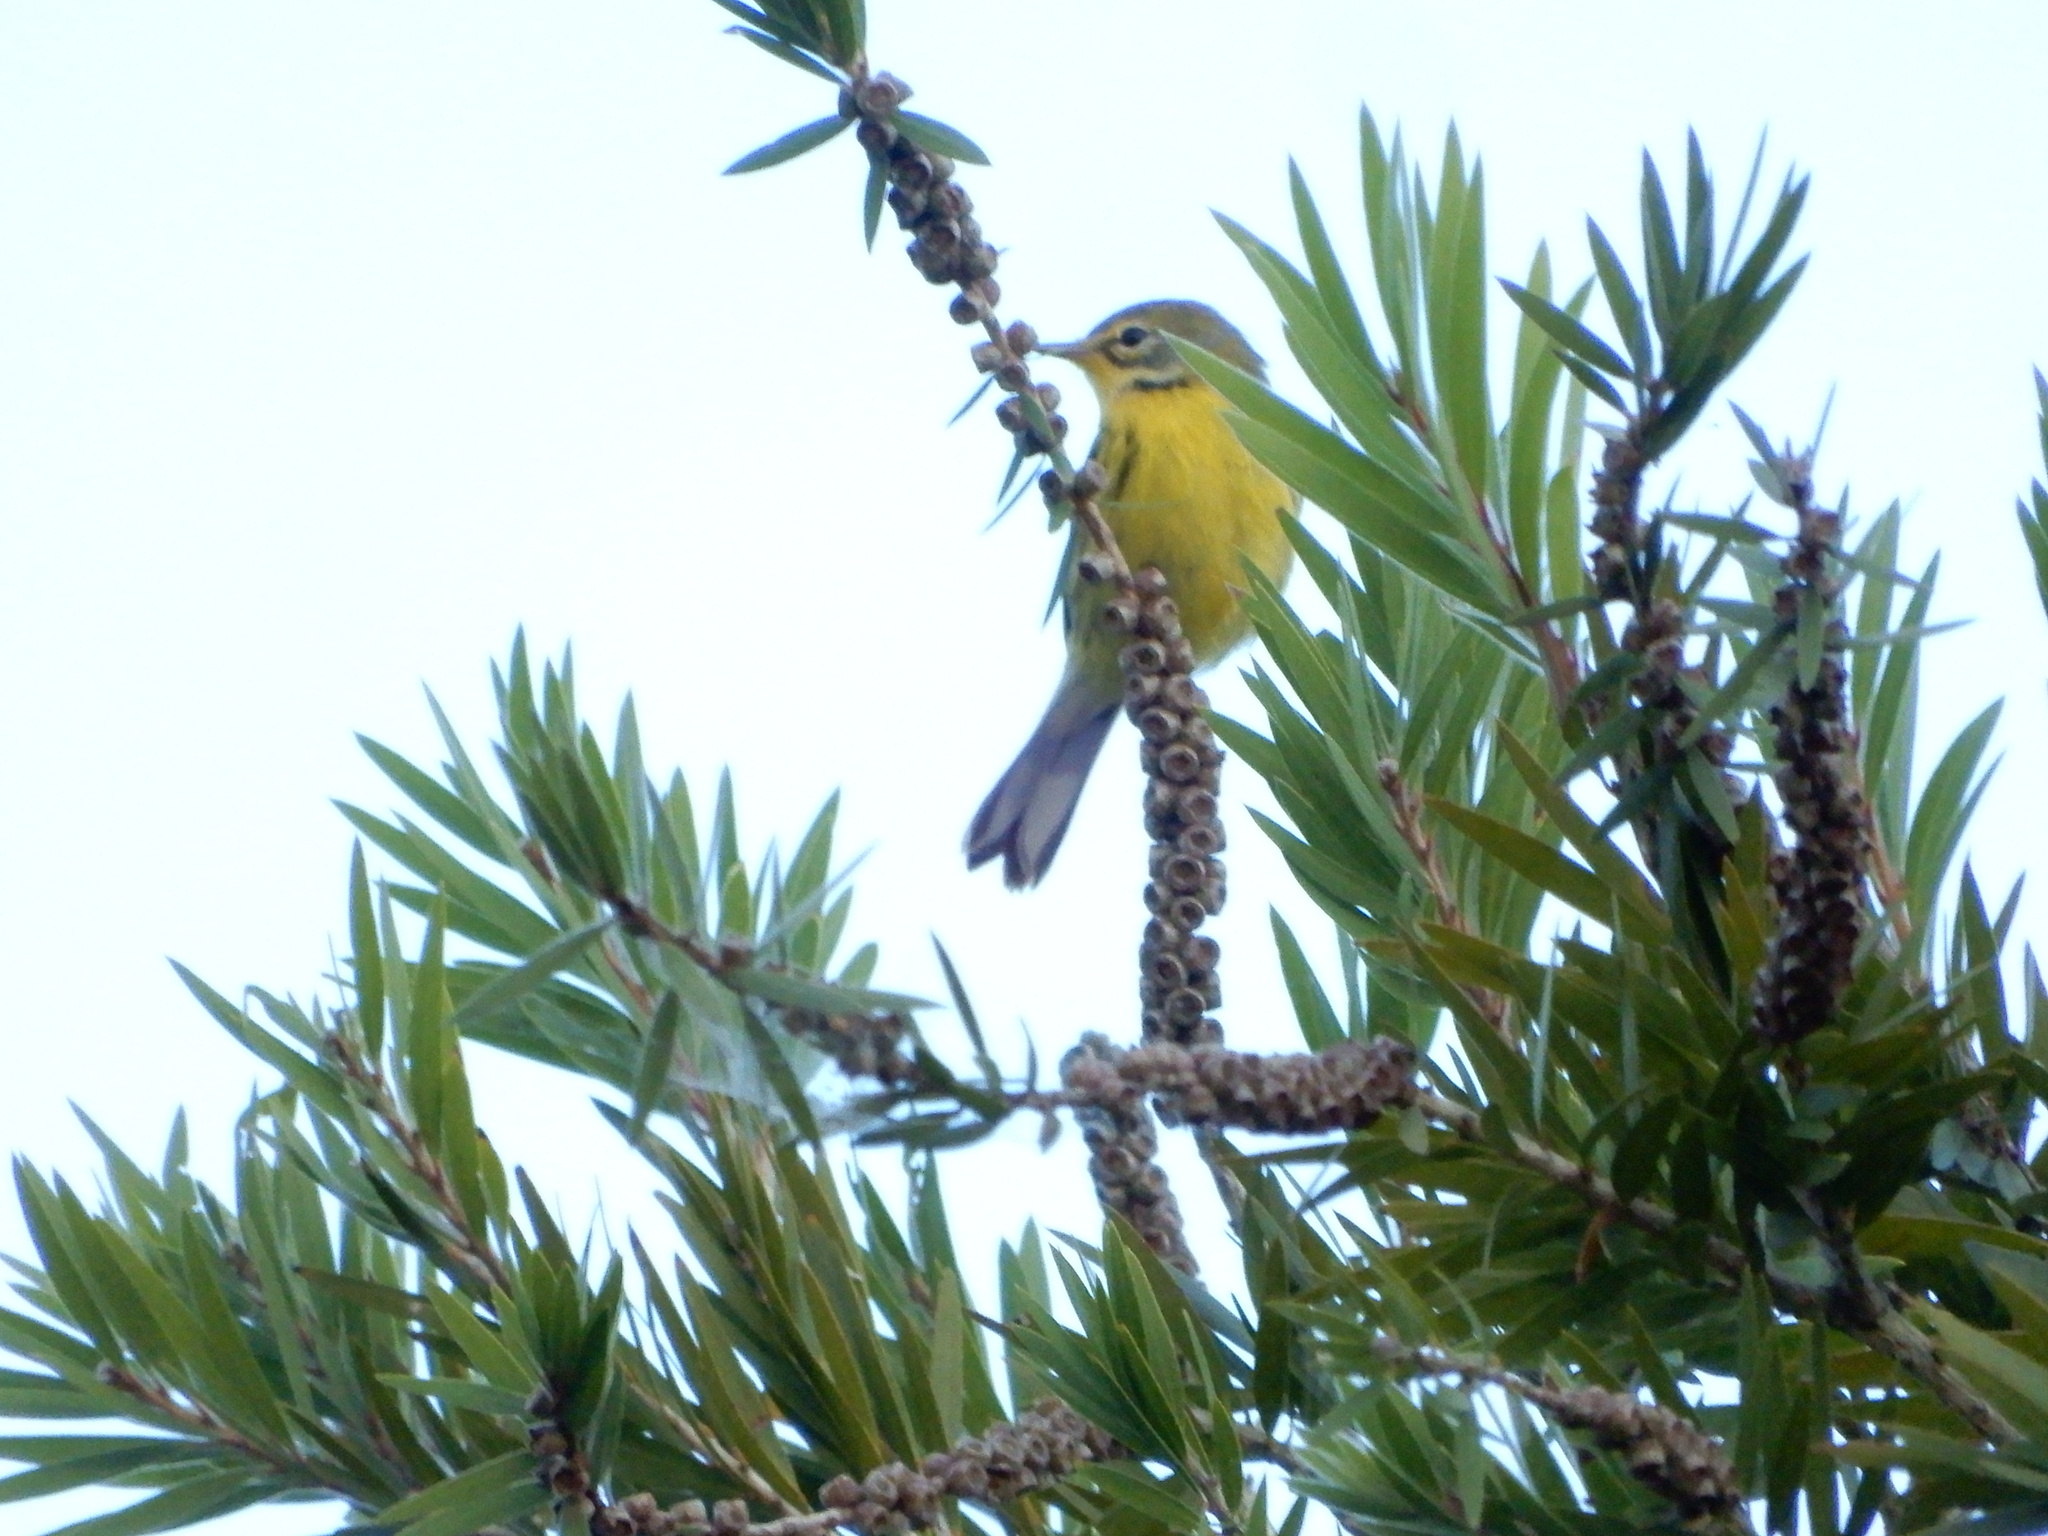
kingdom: Animalia
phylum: Chordata
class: Aves
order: Passeriformes
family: Parulidae
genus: Setophaga
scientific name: Setophaga discolor
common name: Prairie warbler
